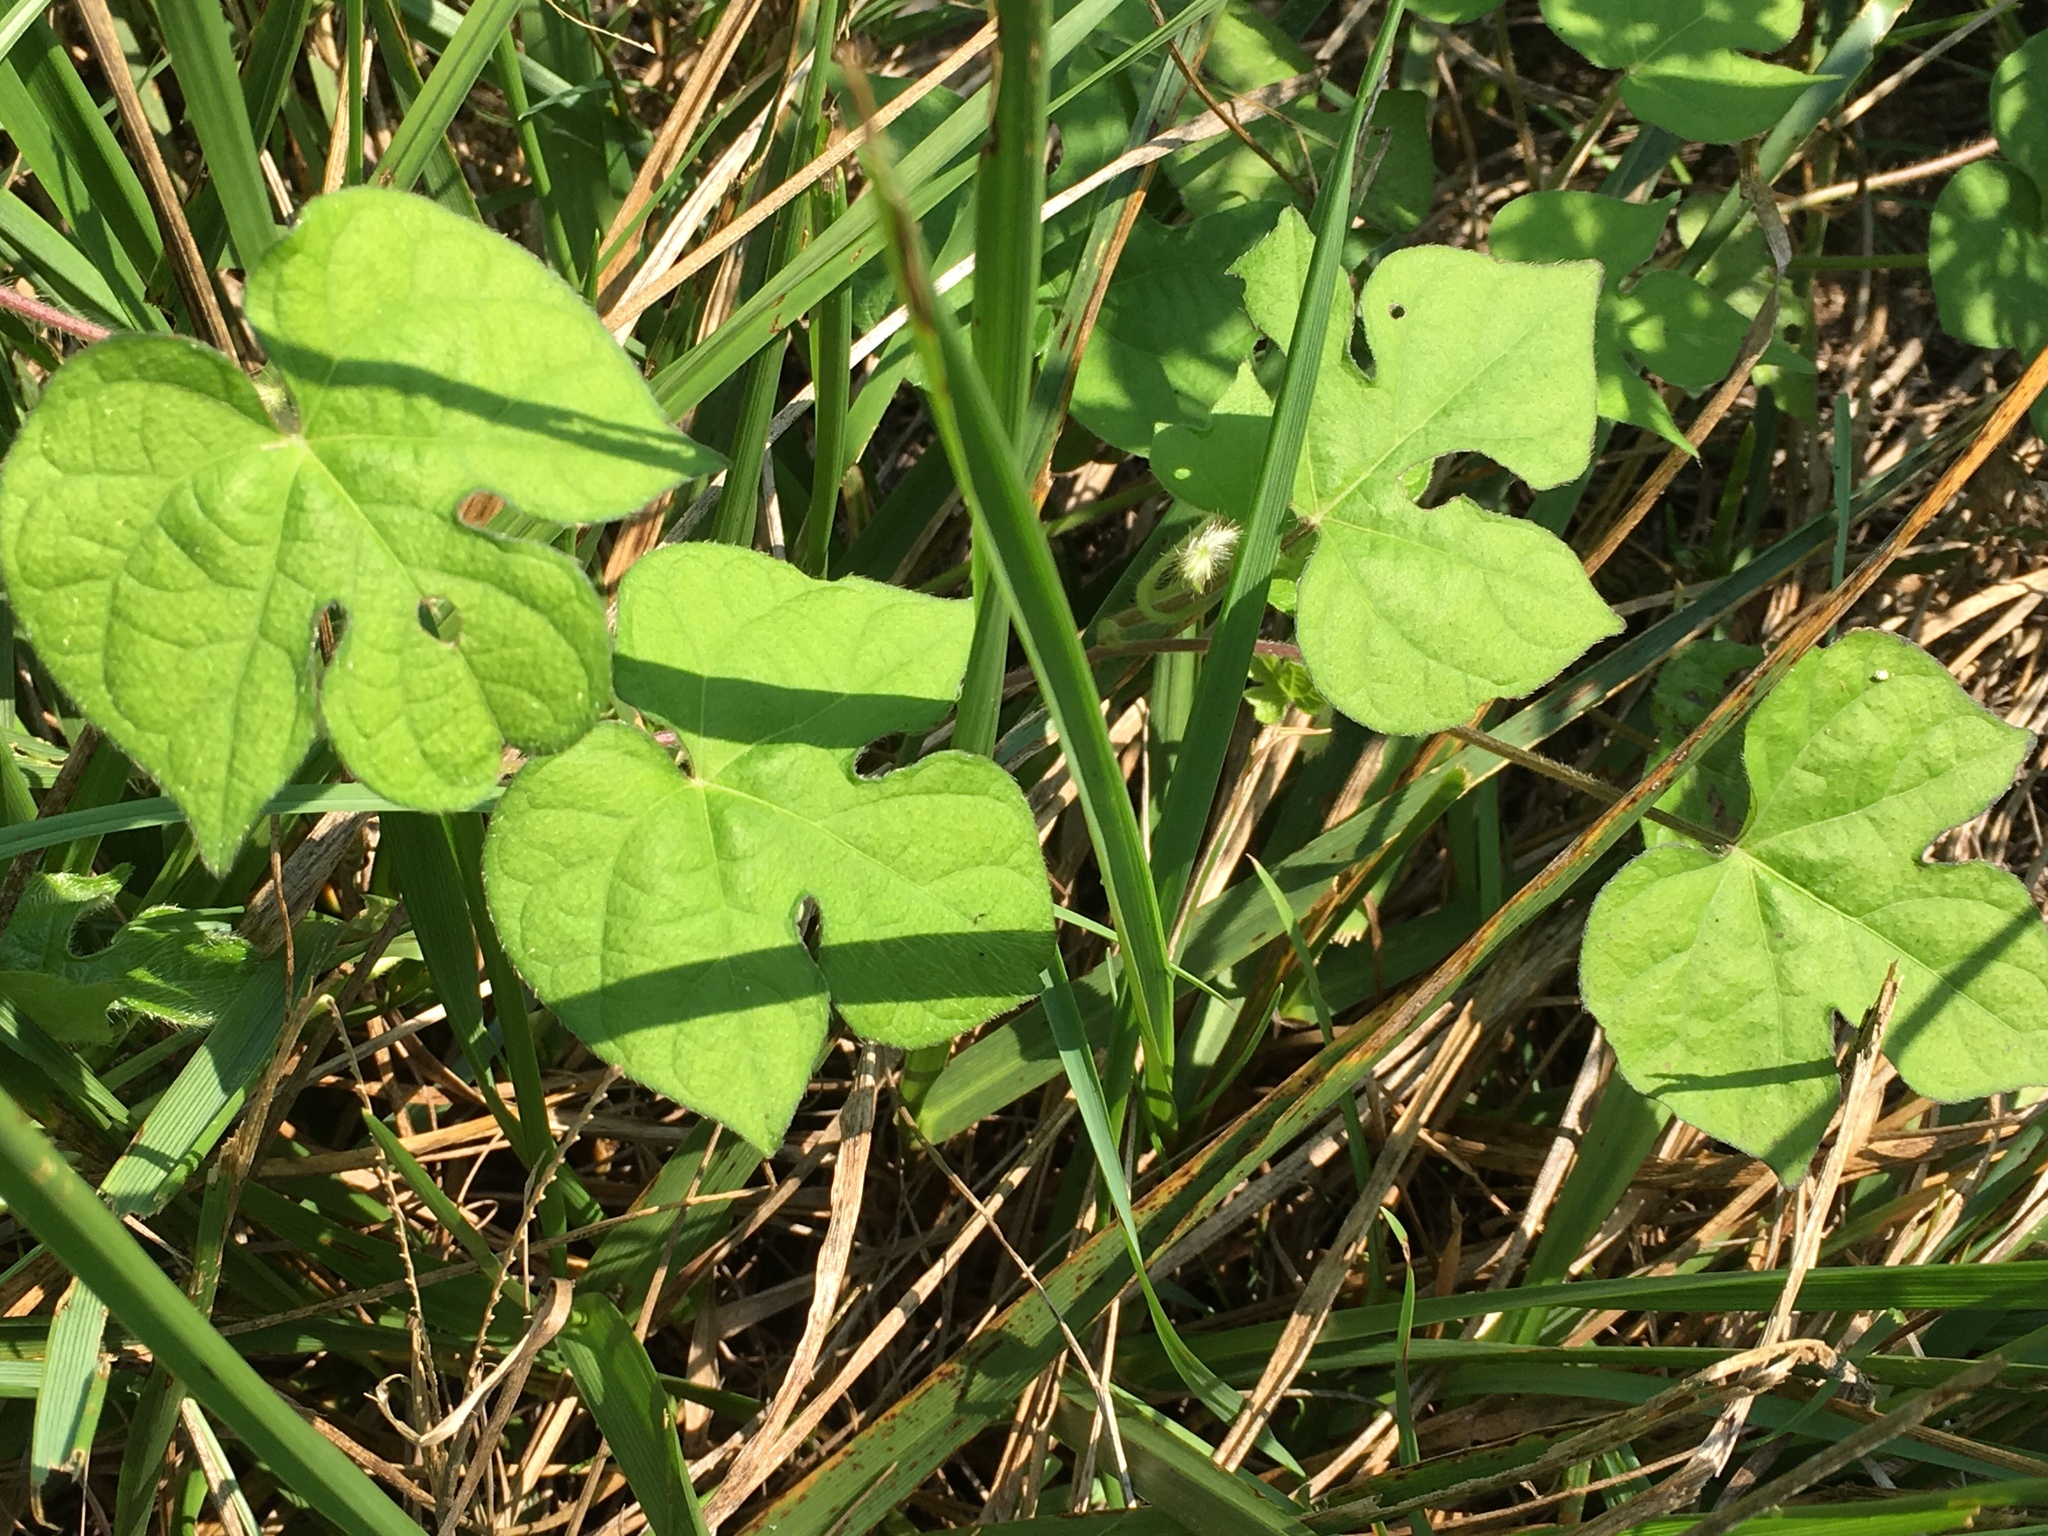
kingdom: Plantae
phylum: Tracheophyta
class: Magnoliopsida
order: Solanales
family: Convolvulaceae
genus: Ipomoea
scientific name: Ipomoea hederacea
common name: Ivy-leaved morning-glory
